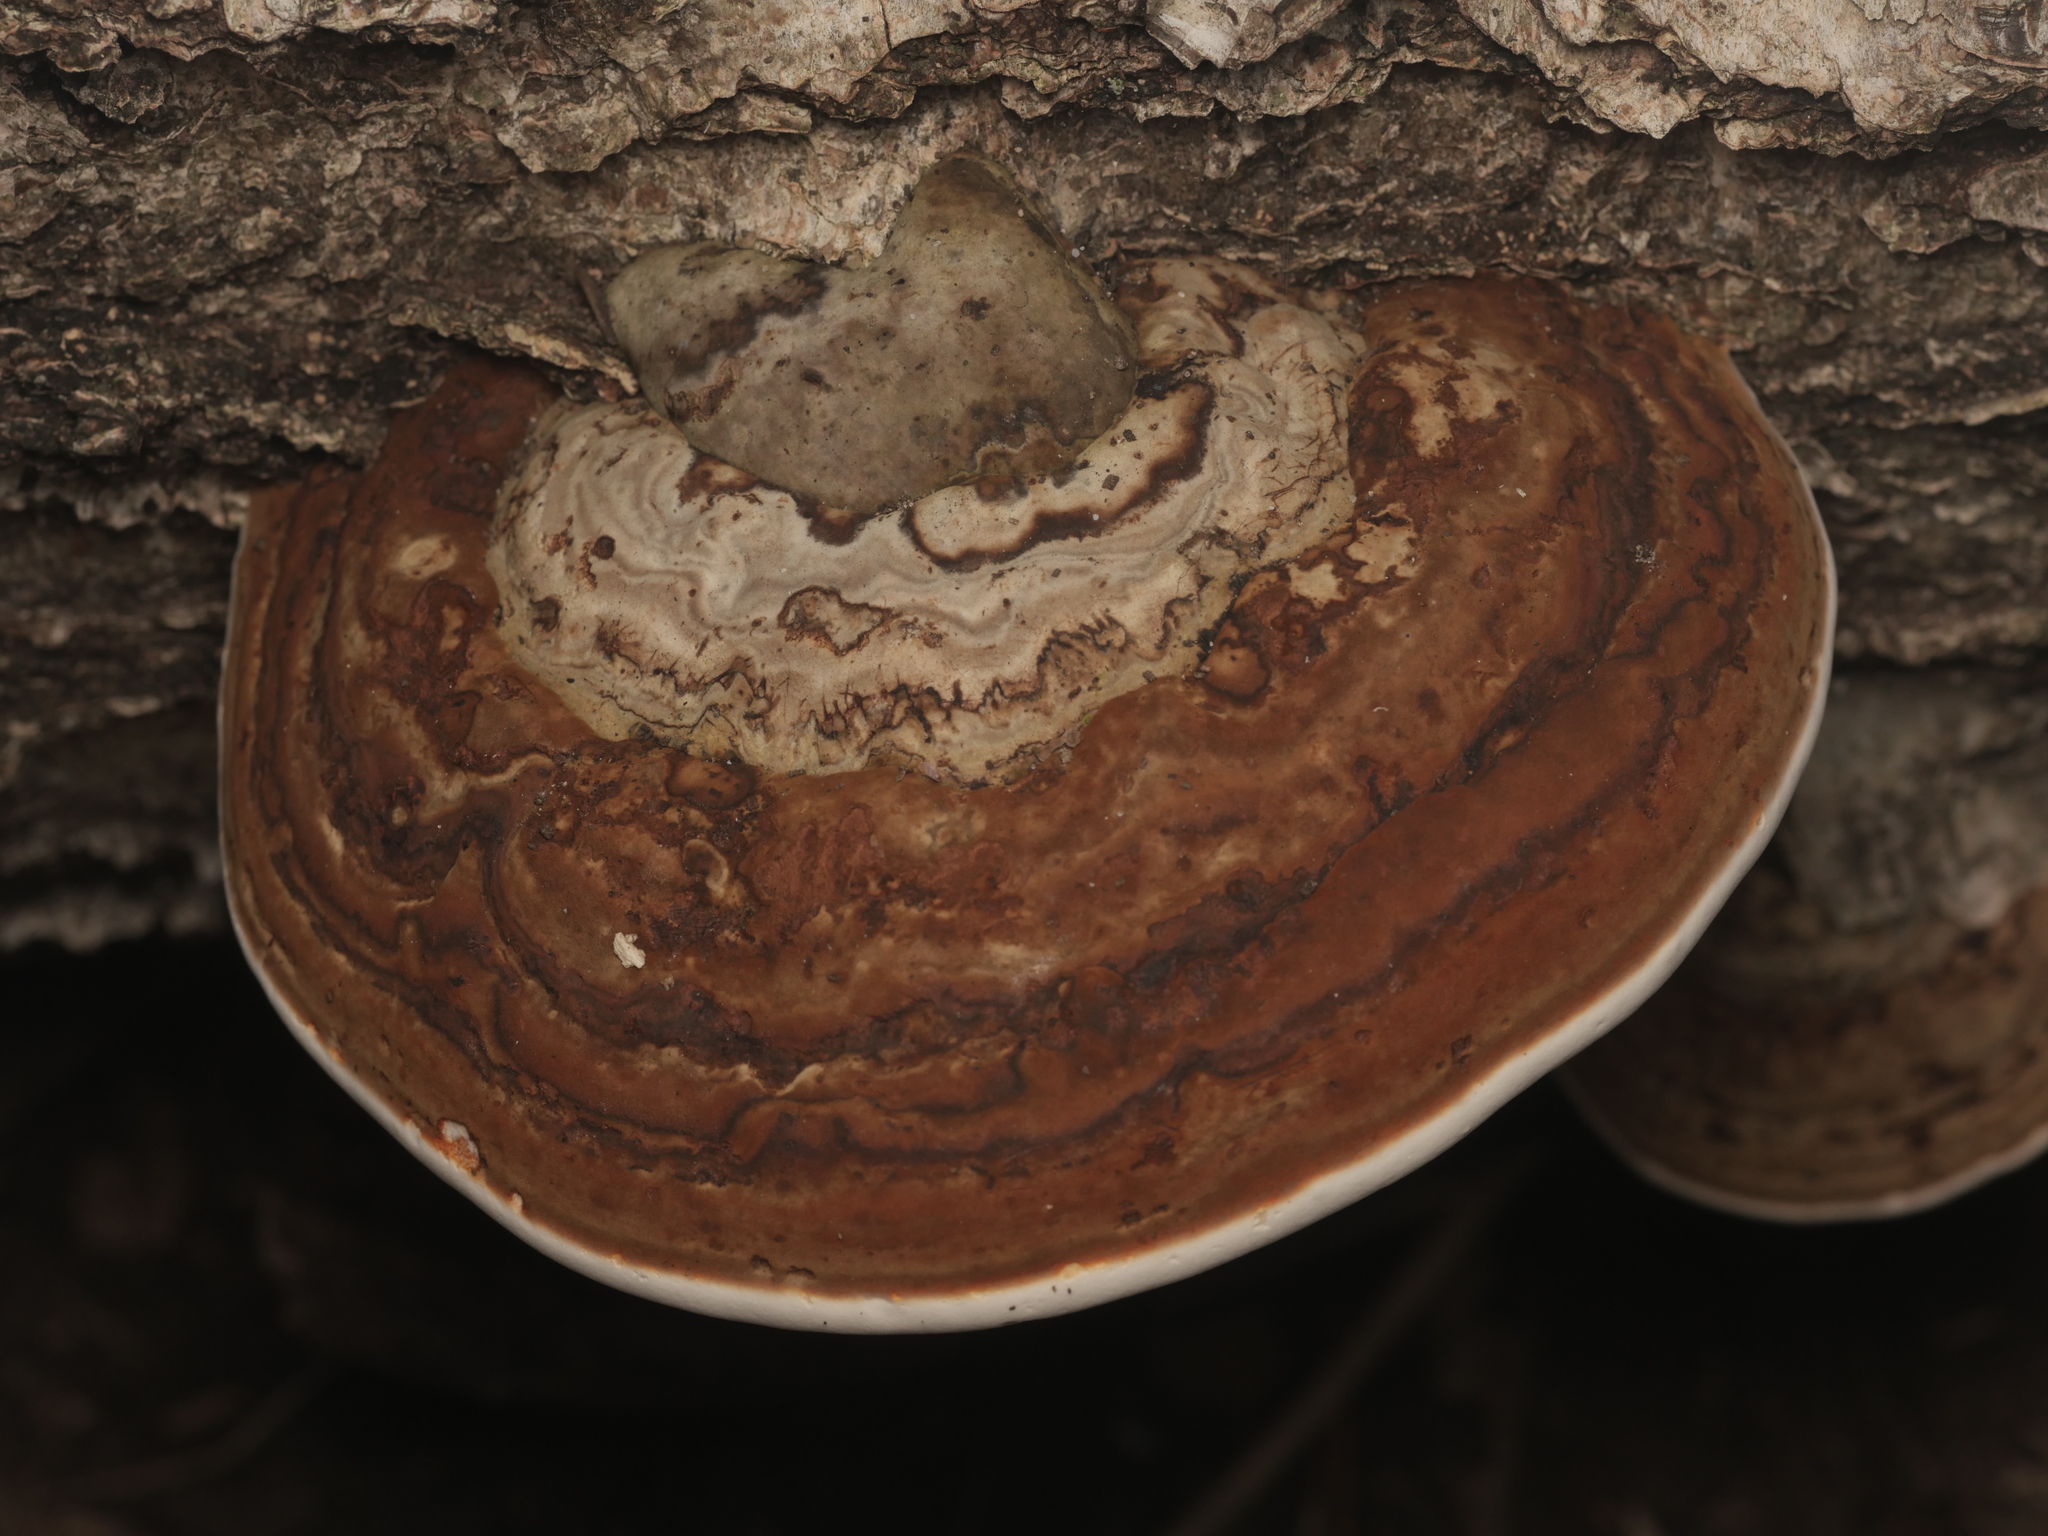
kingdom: Fungi
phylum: Basidiomycota
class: Agaricomycetes
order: Polyporales
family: Polyporaceae
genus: Fomes
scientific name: Fomes fomentarius
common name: Hoof fungus
